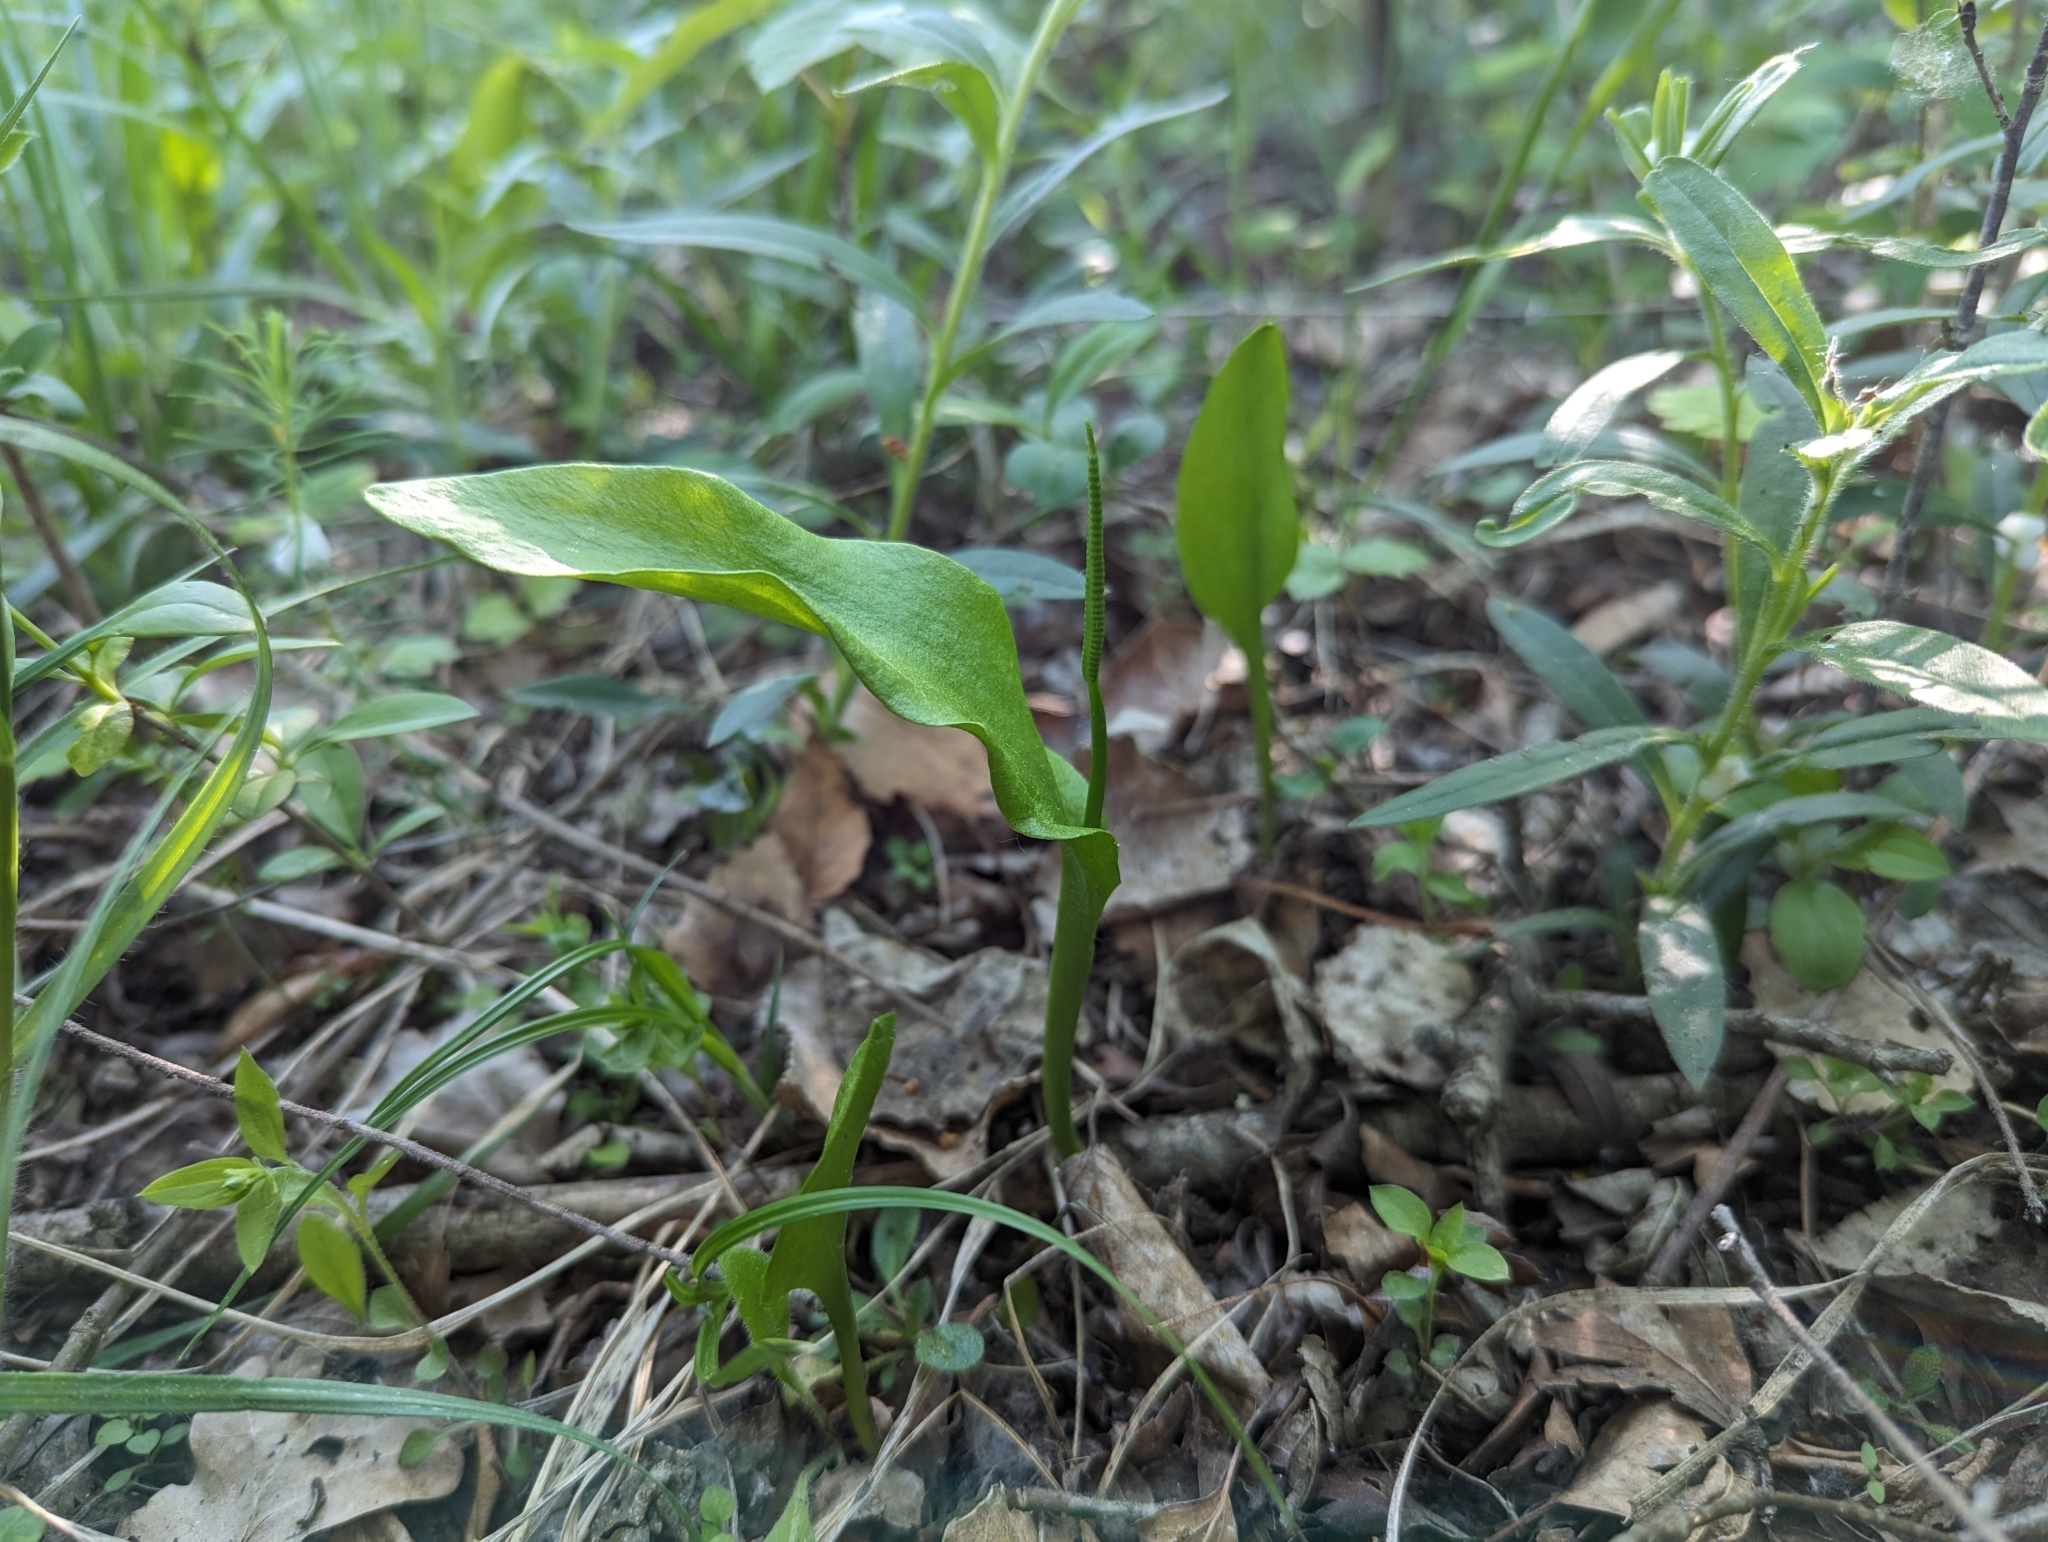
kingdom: Plantae
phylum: Tracheophyta
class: Polypodiopsida
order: Ophioglossales
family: Ophioglossaceae
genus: Ophioglossum
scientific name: Ophioglossum vulgatum
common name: Adder's-tongue
